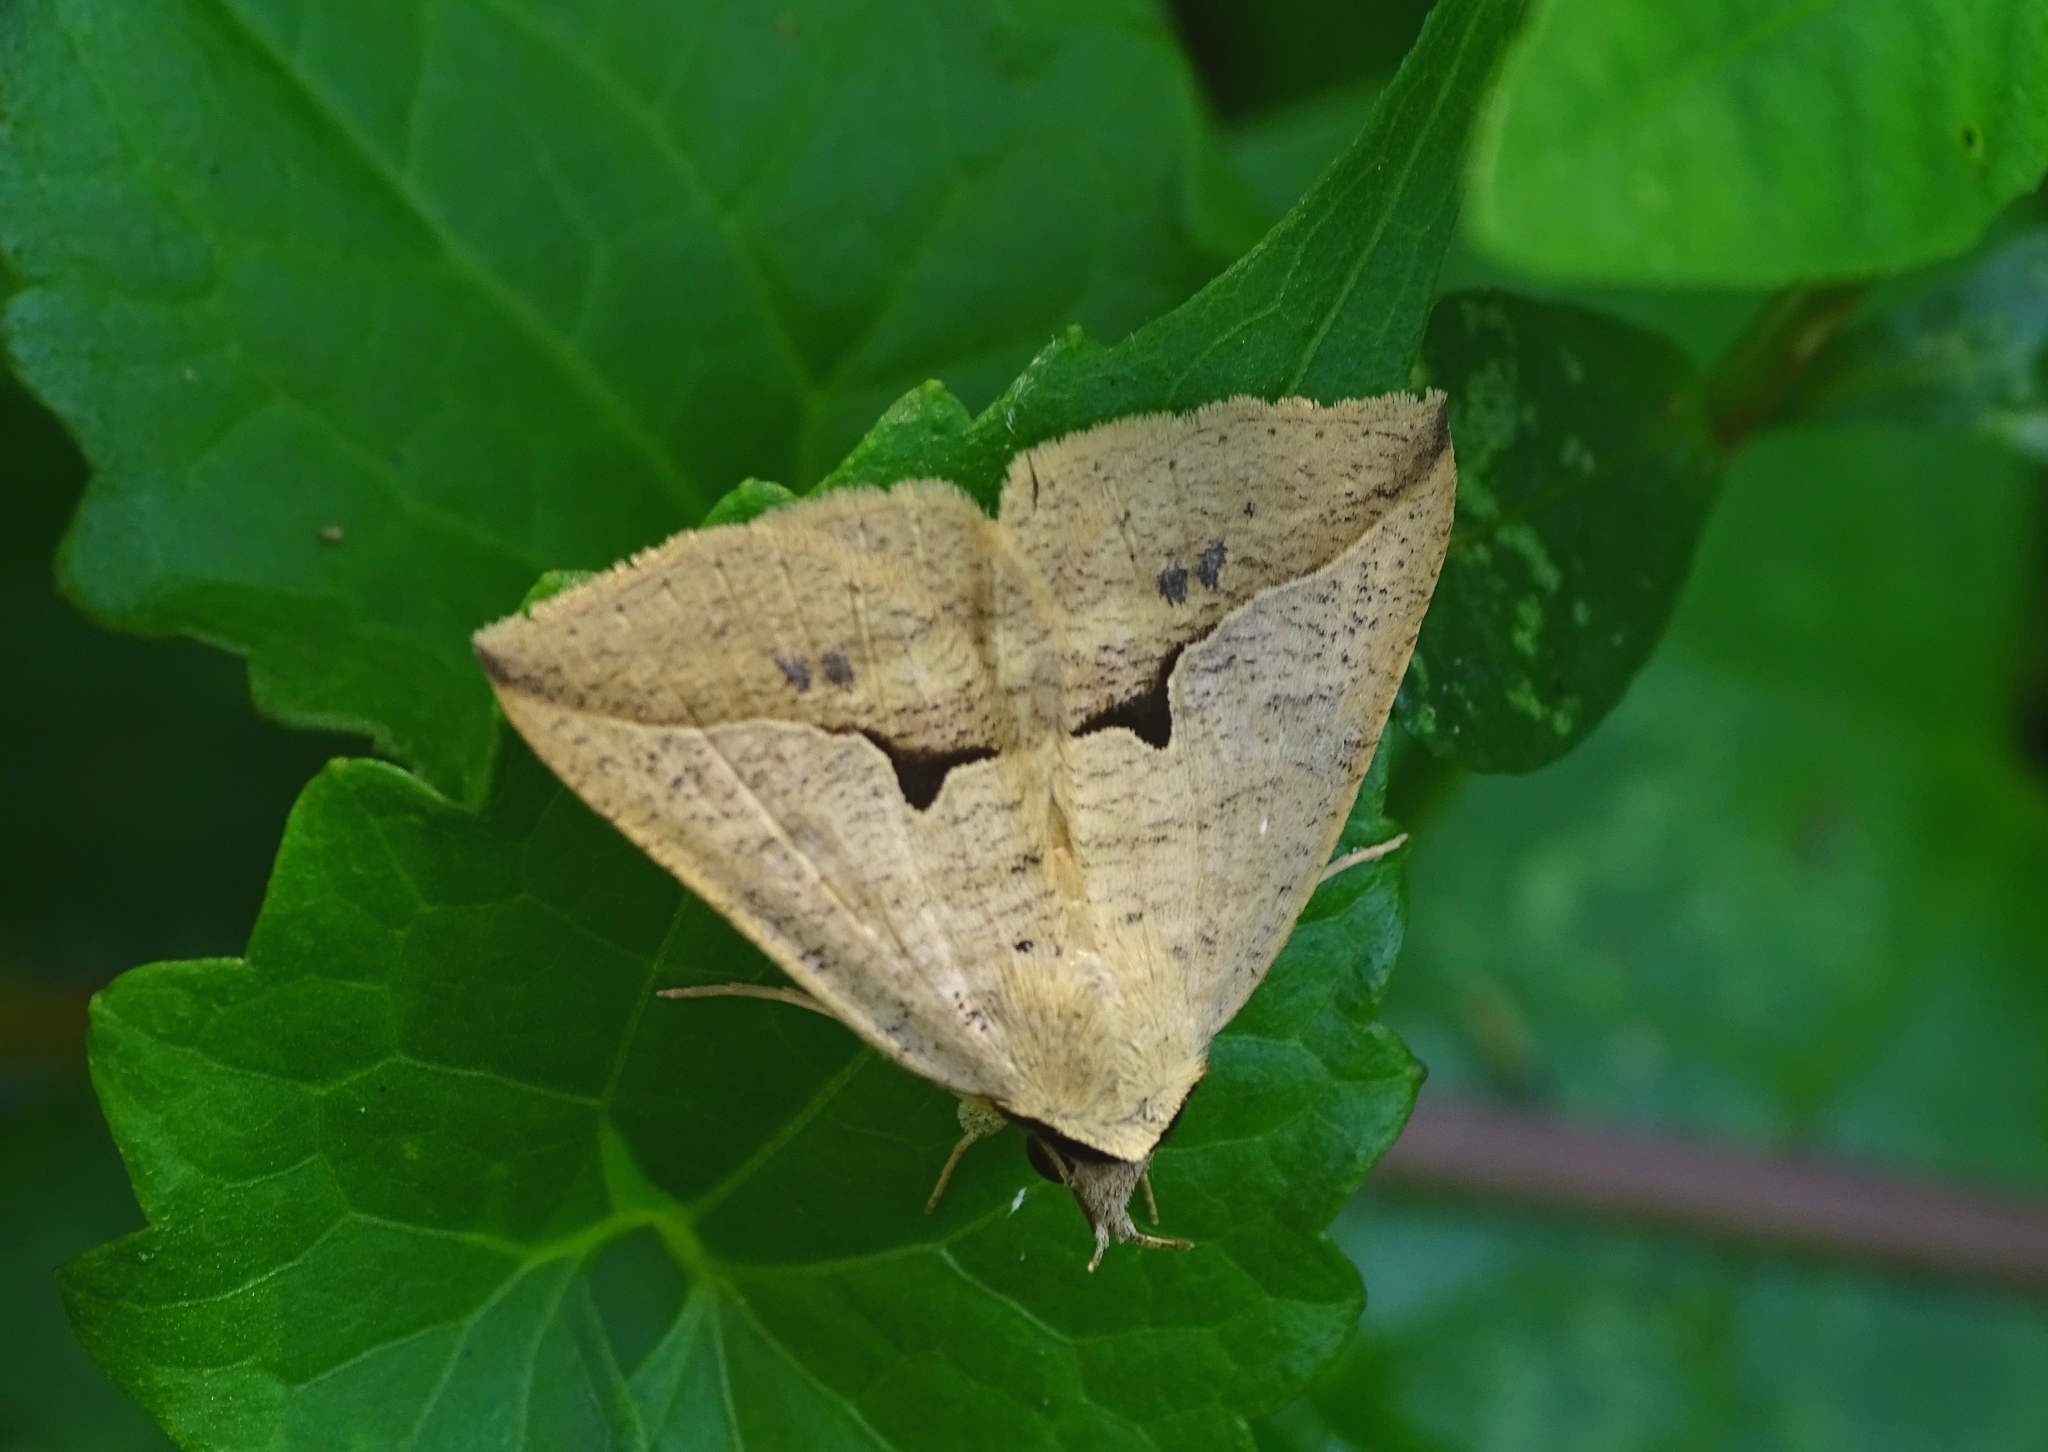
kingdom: Animalia
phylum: Arthropoda
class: Insecta
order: Lepidoptera
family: Erebidae
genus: Dierna
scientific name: Dierna patibulum
